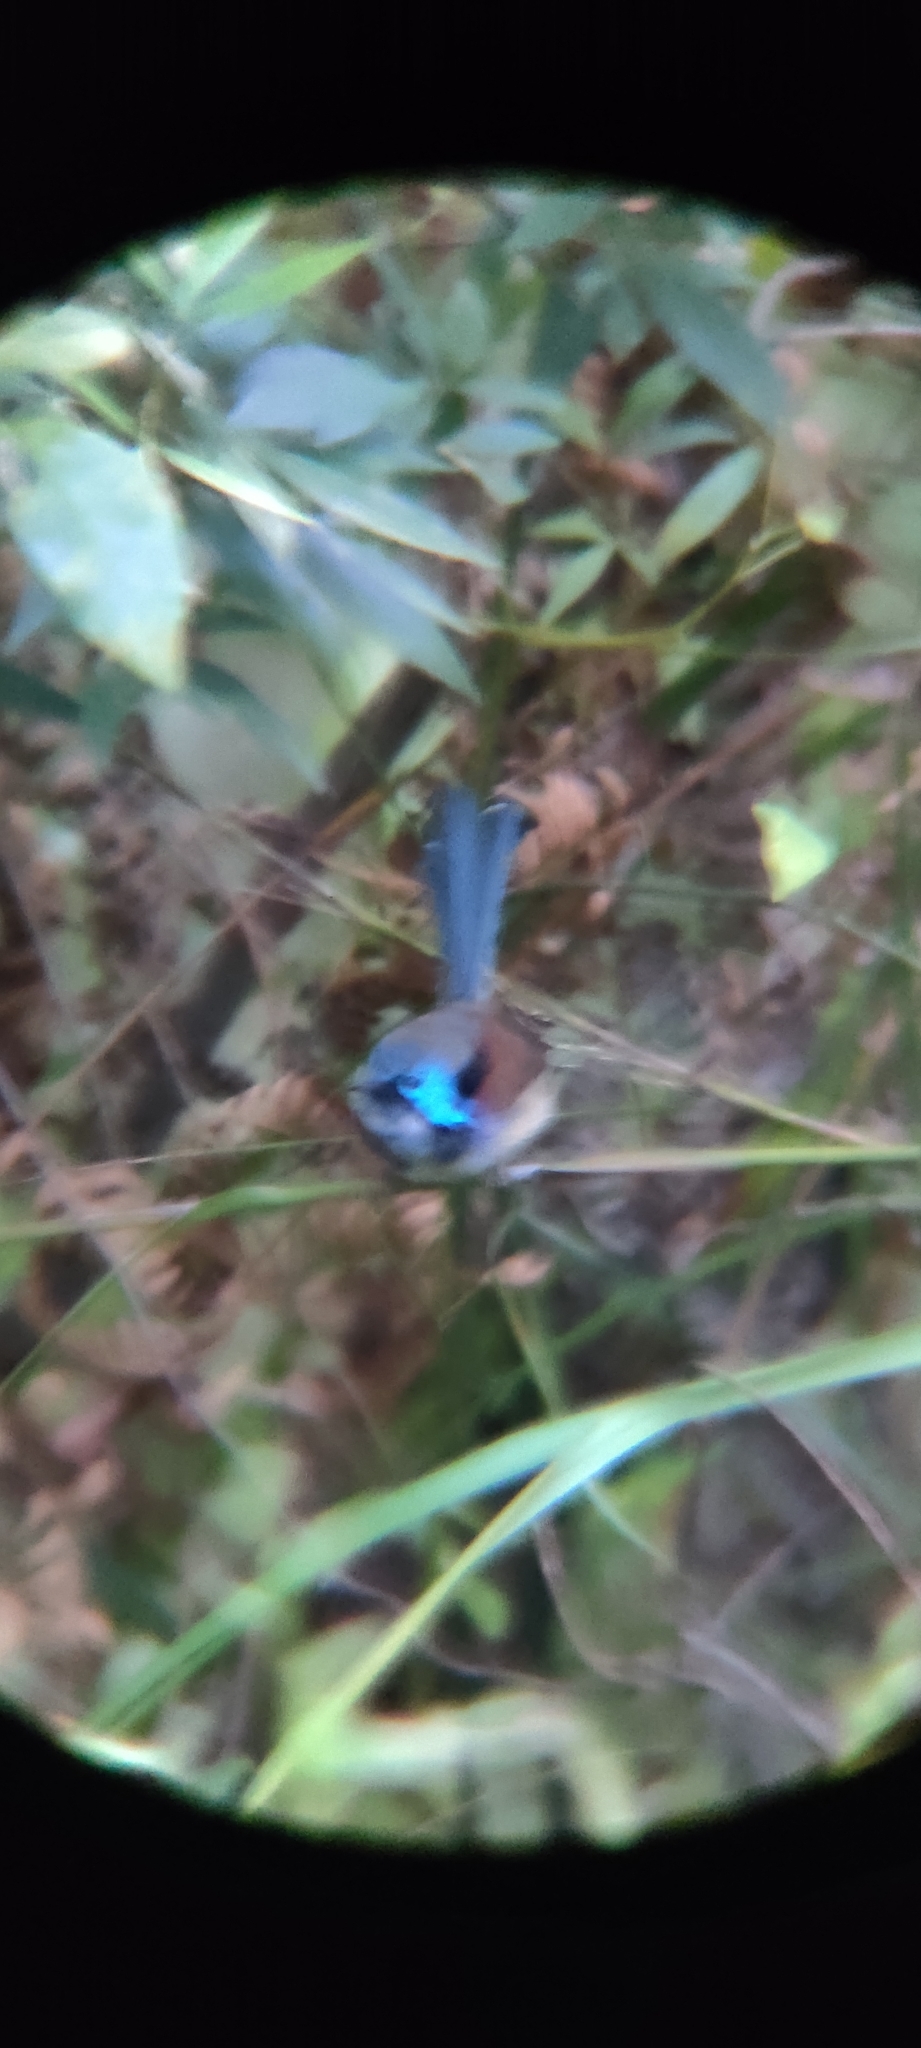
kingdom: Animalia
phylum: Chordata
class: Aves
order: Passeriformes
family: Maluridae
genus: Malurus
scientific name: Malurus lamberti
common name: Variegated fairywren
